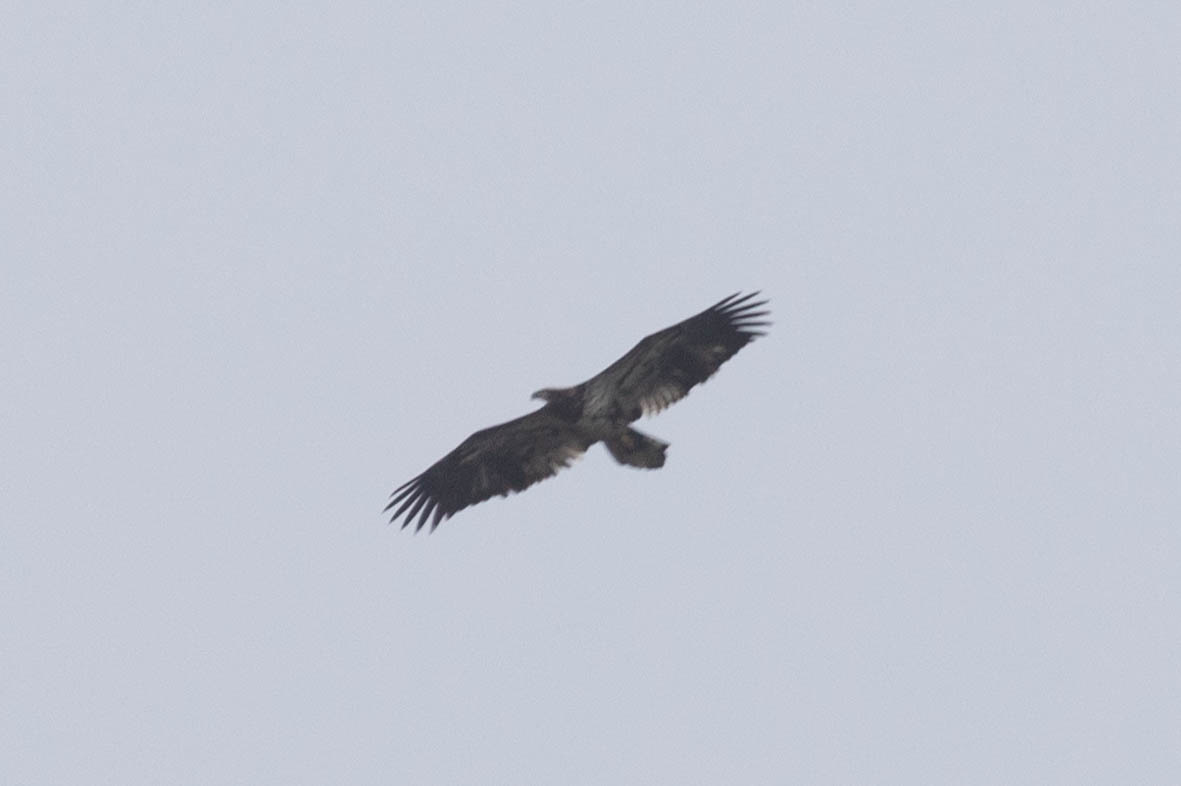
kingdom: Animalia
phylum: Chordata
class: Aves
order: Accipitriformes
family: Accipitridae
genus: Haliaeetus
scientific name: Haliaeetus leucocephalus
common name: Bald eagle
